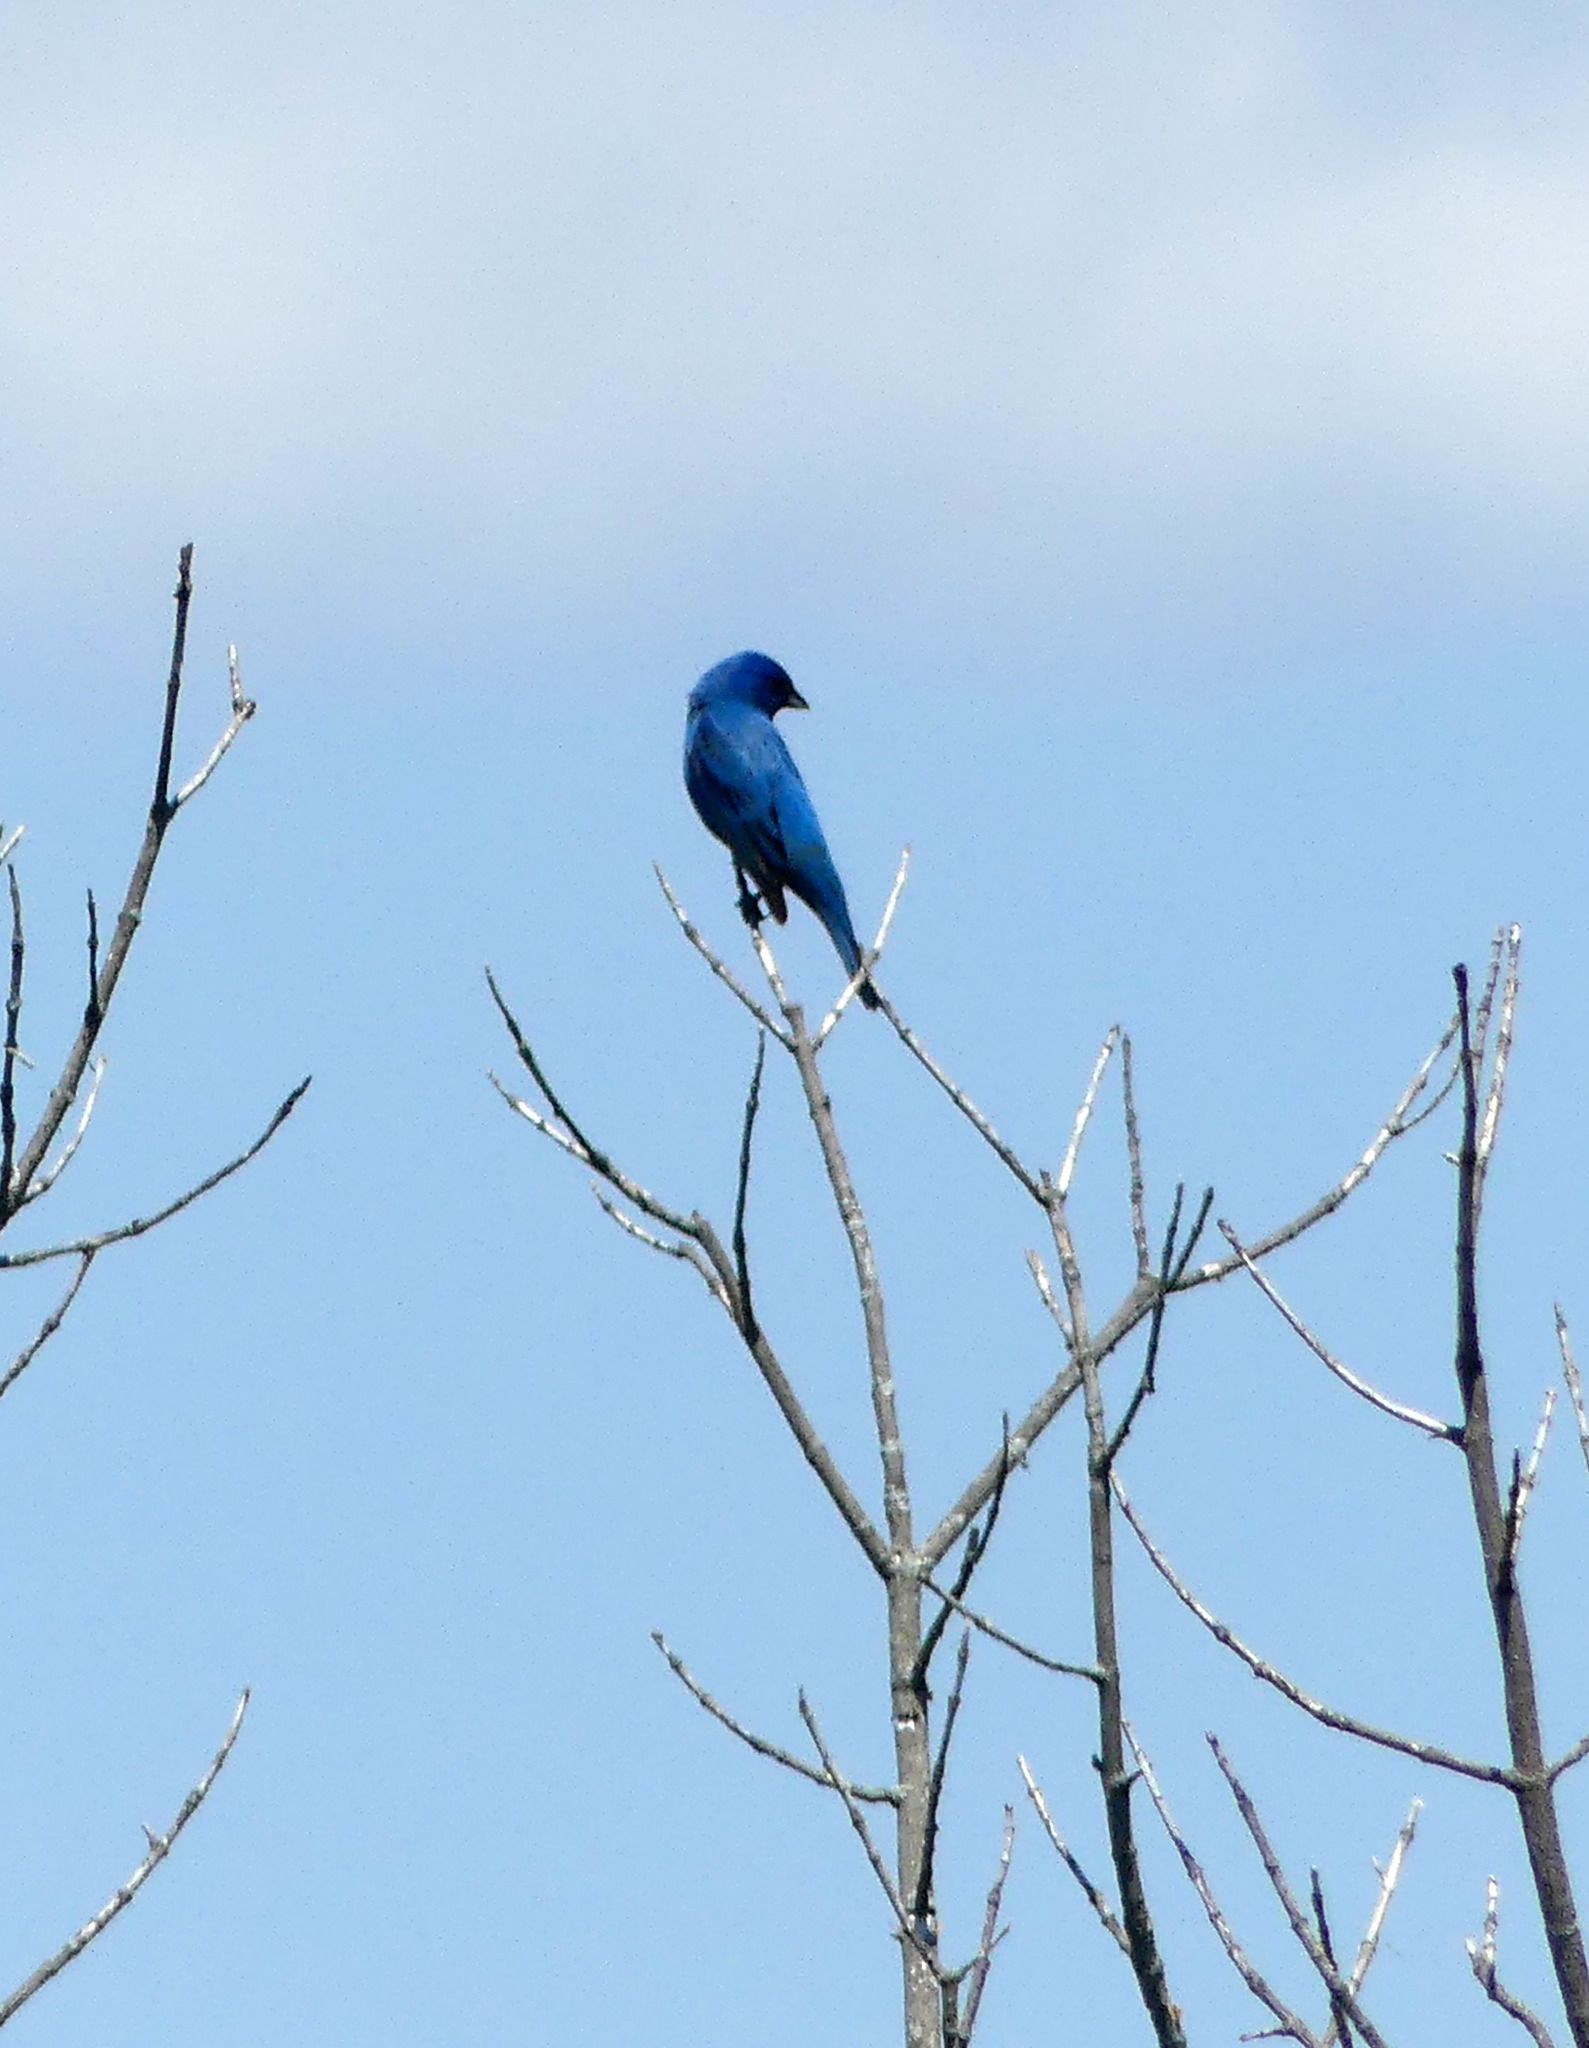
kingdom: Animalia
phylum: Chordata
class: Aves
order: Passeriformes
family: Cardinalidae
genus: Passerina
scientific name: Passerina cyanea
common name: Indigo bunting
